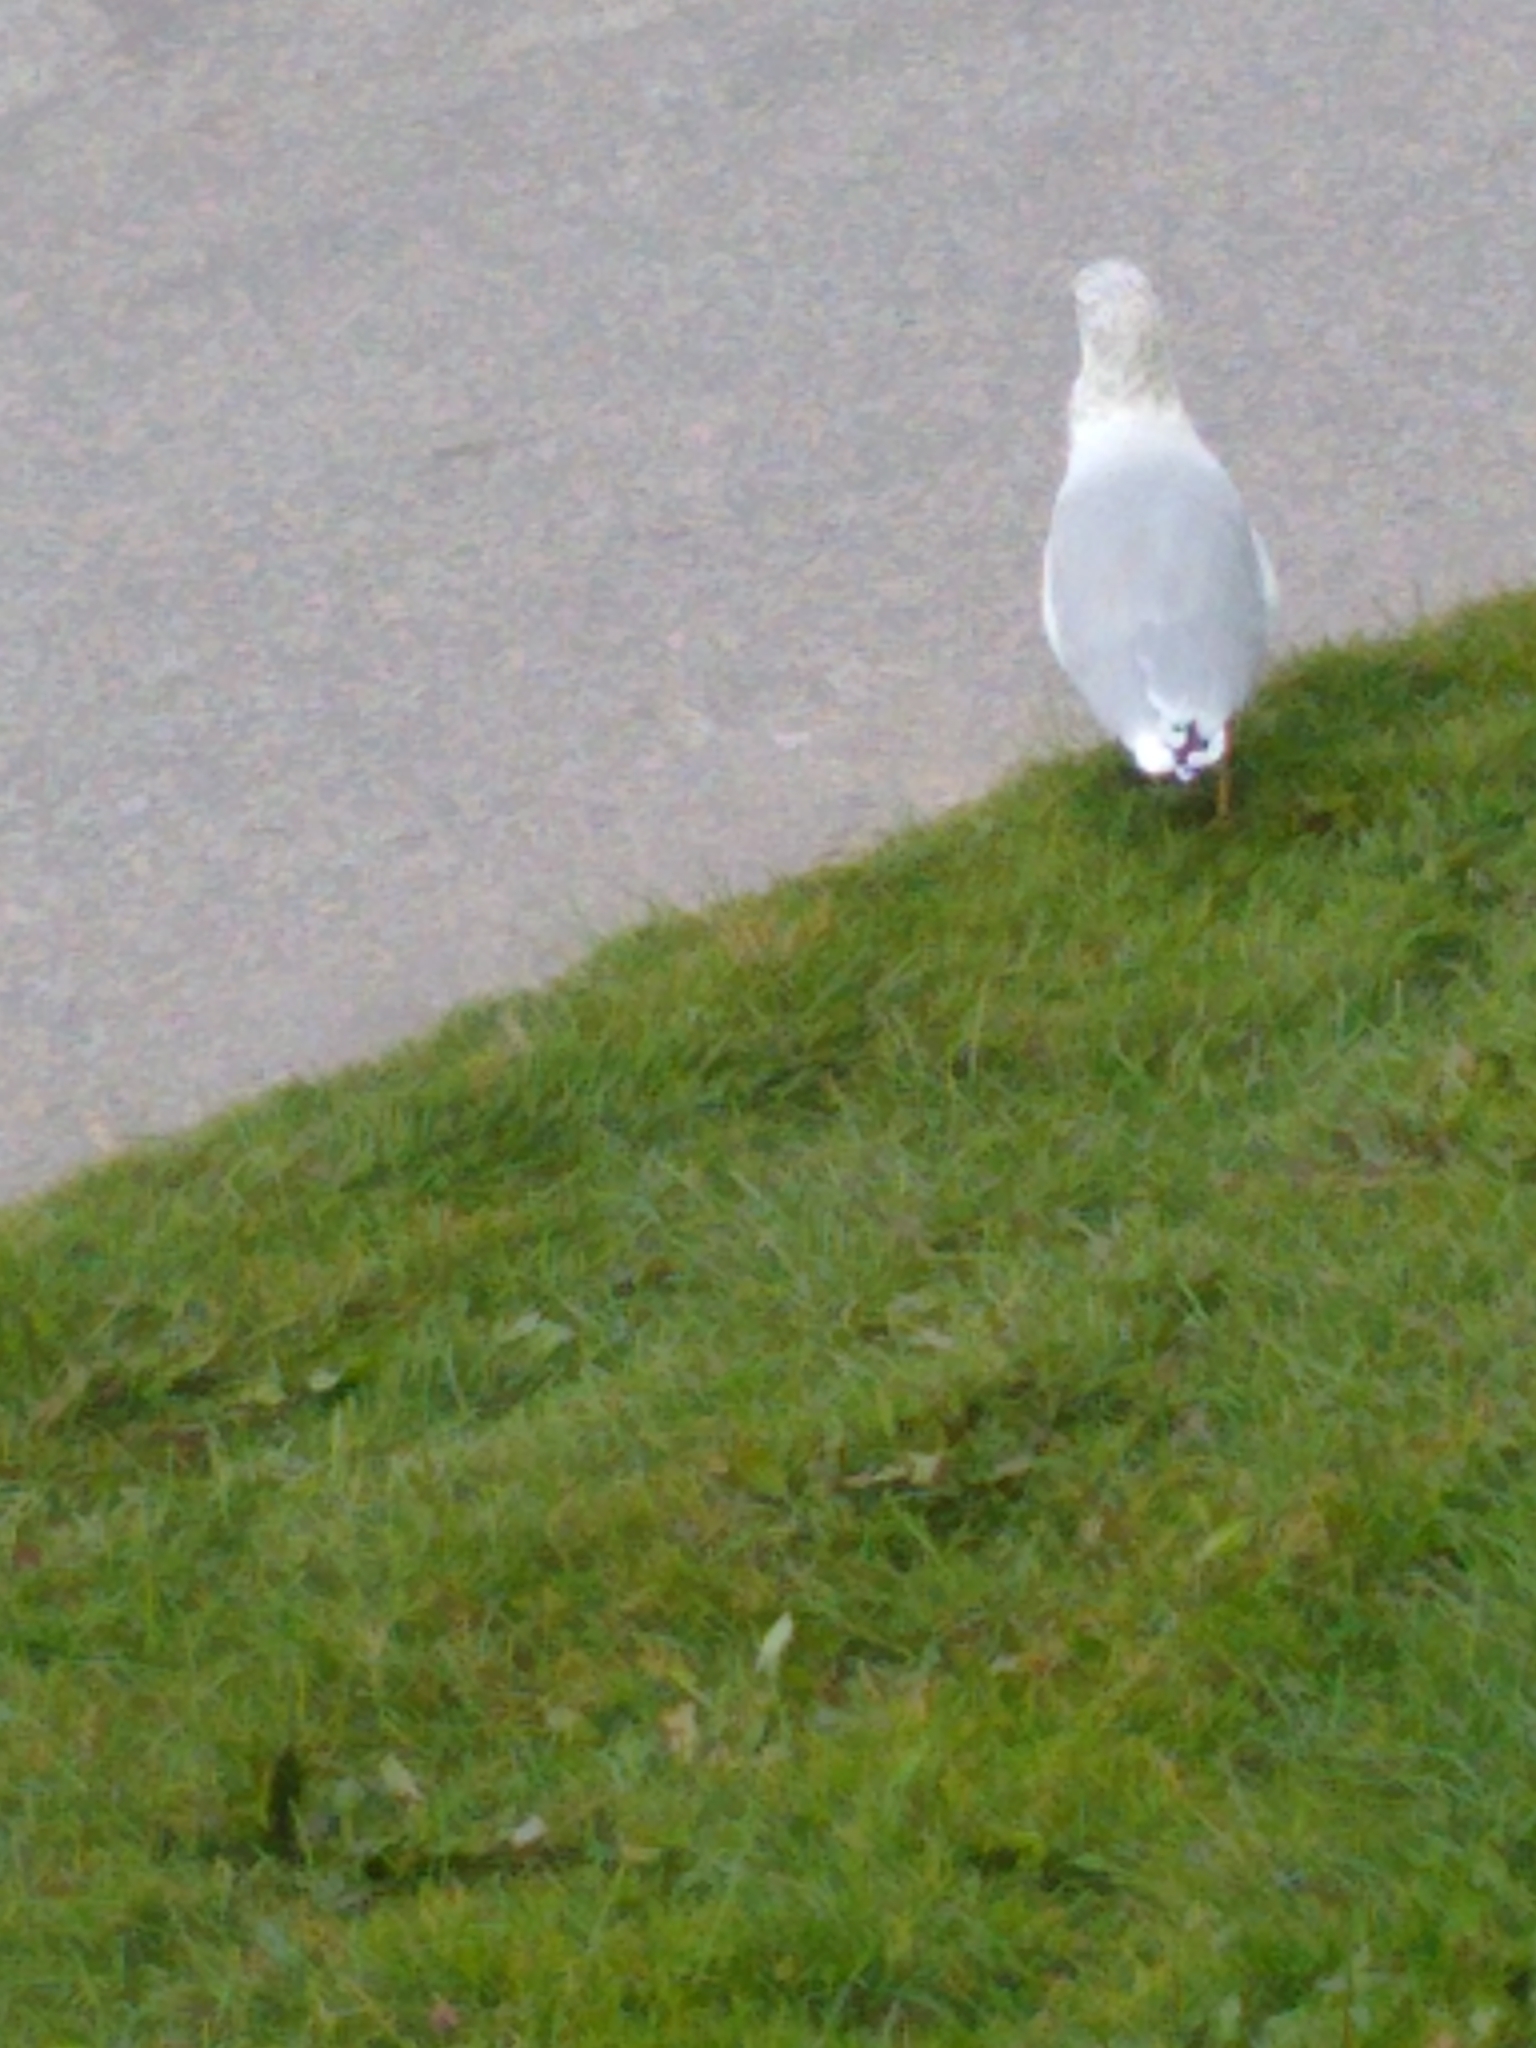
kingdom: Animalia
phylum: Chordata
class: Aves
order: Charadriiformes
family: Laridae
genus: Larus
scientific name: Larus delawarensis
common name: Ring-billed gull
